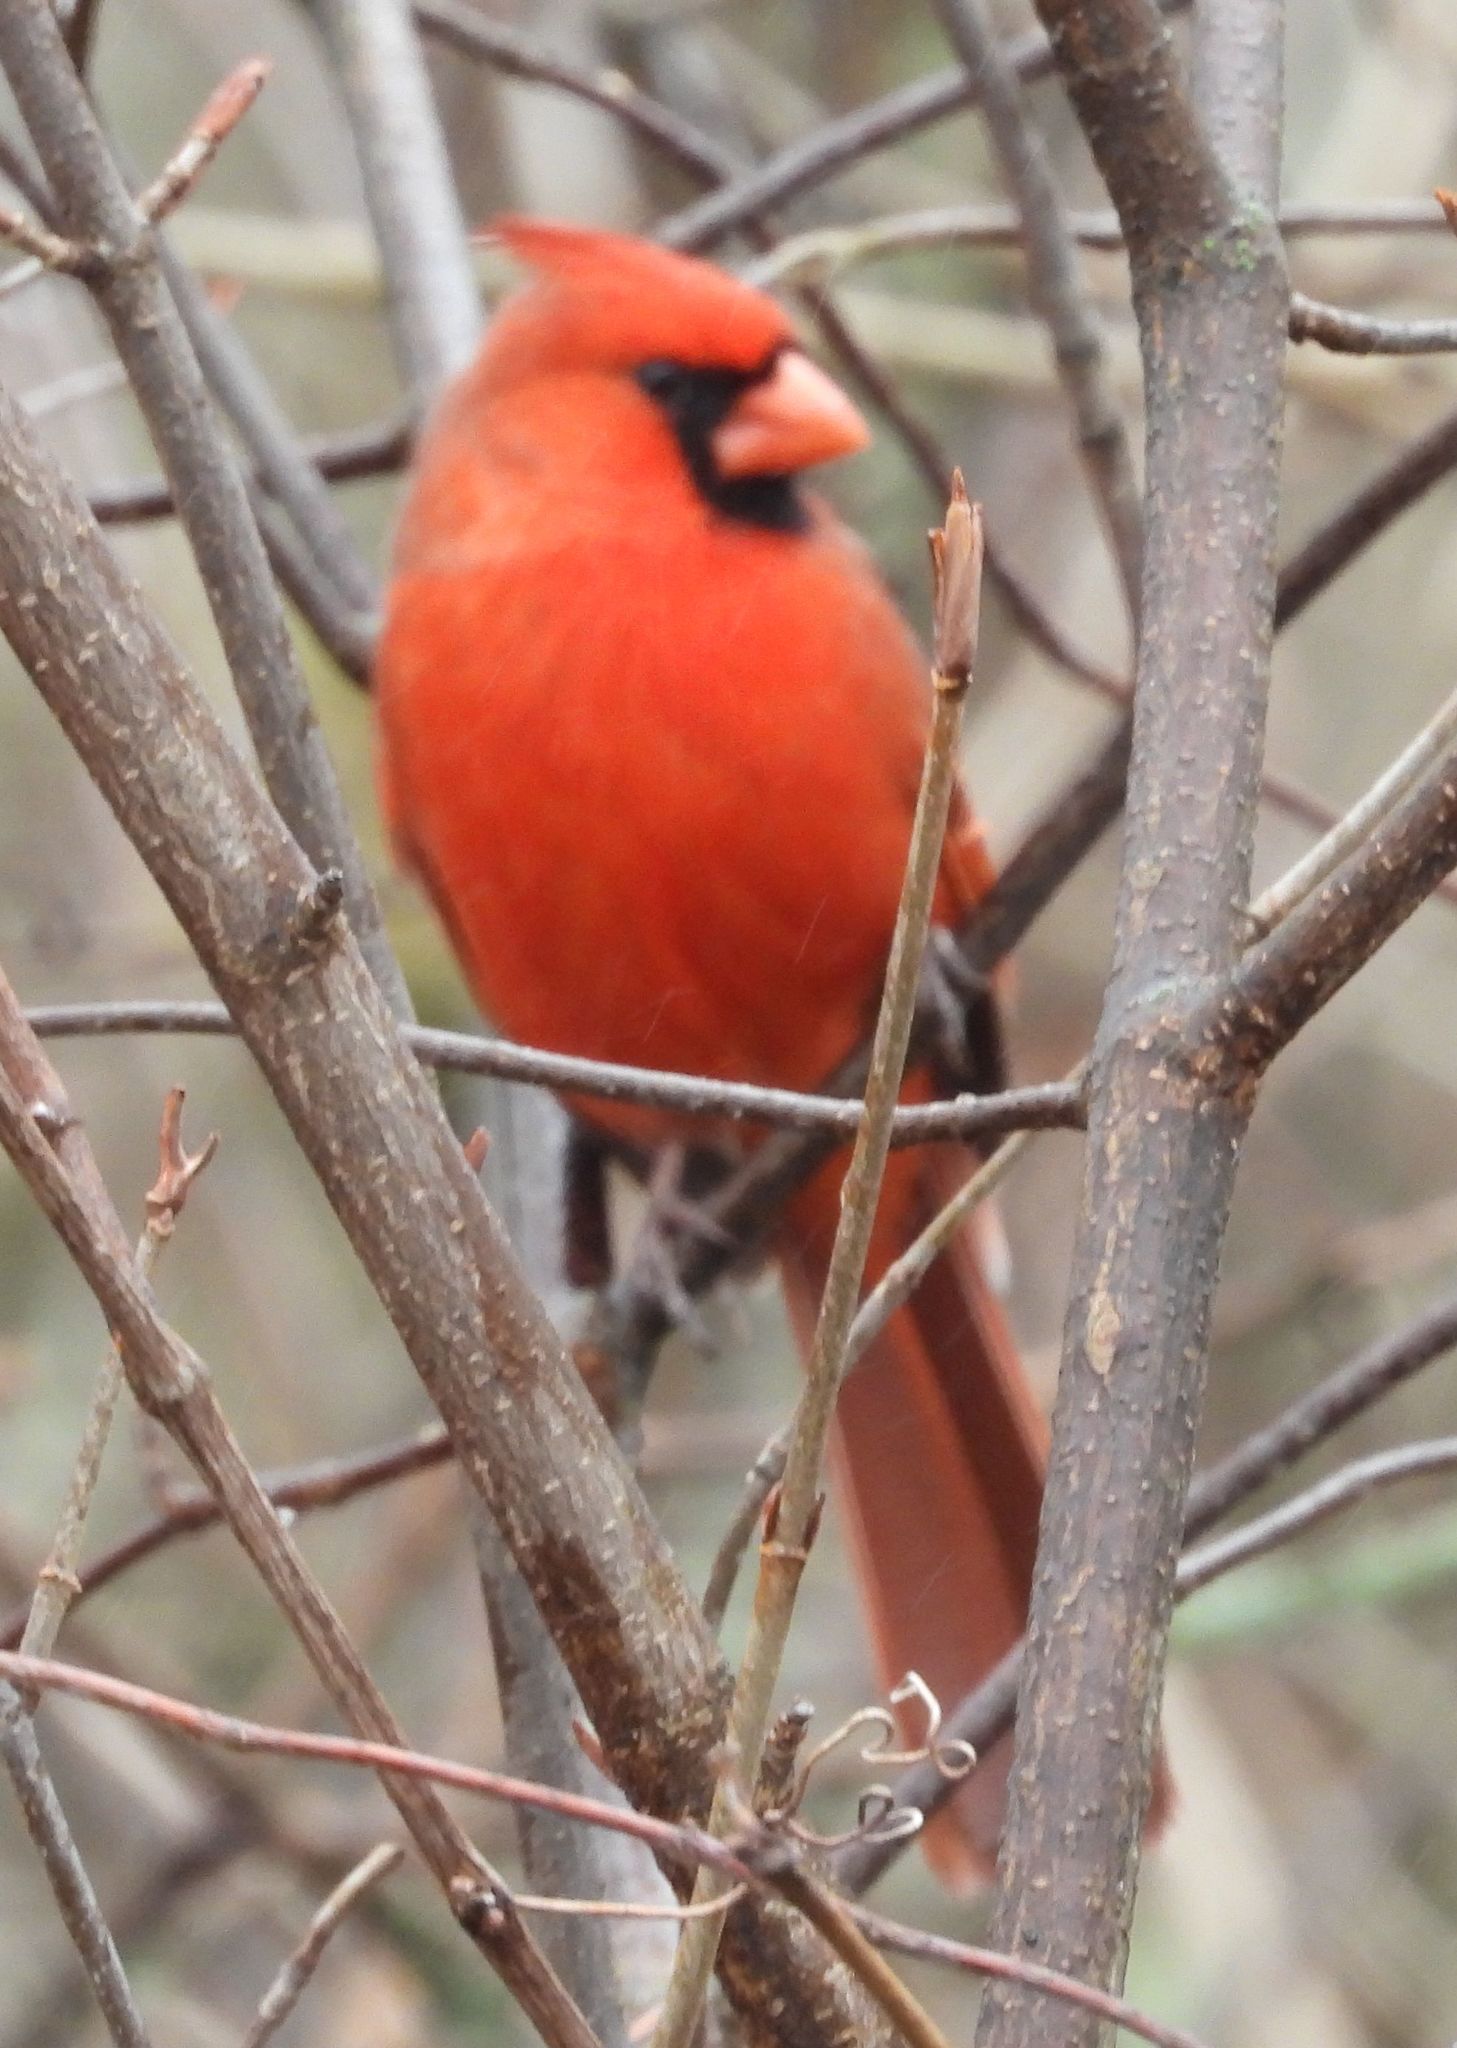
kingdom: Animalia
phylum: Chordata
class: Aves
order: Passeriformes
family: Cardinalidae
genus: Cardinalis
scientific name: Cardinalis cardinalis
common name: Northern cardinal
